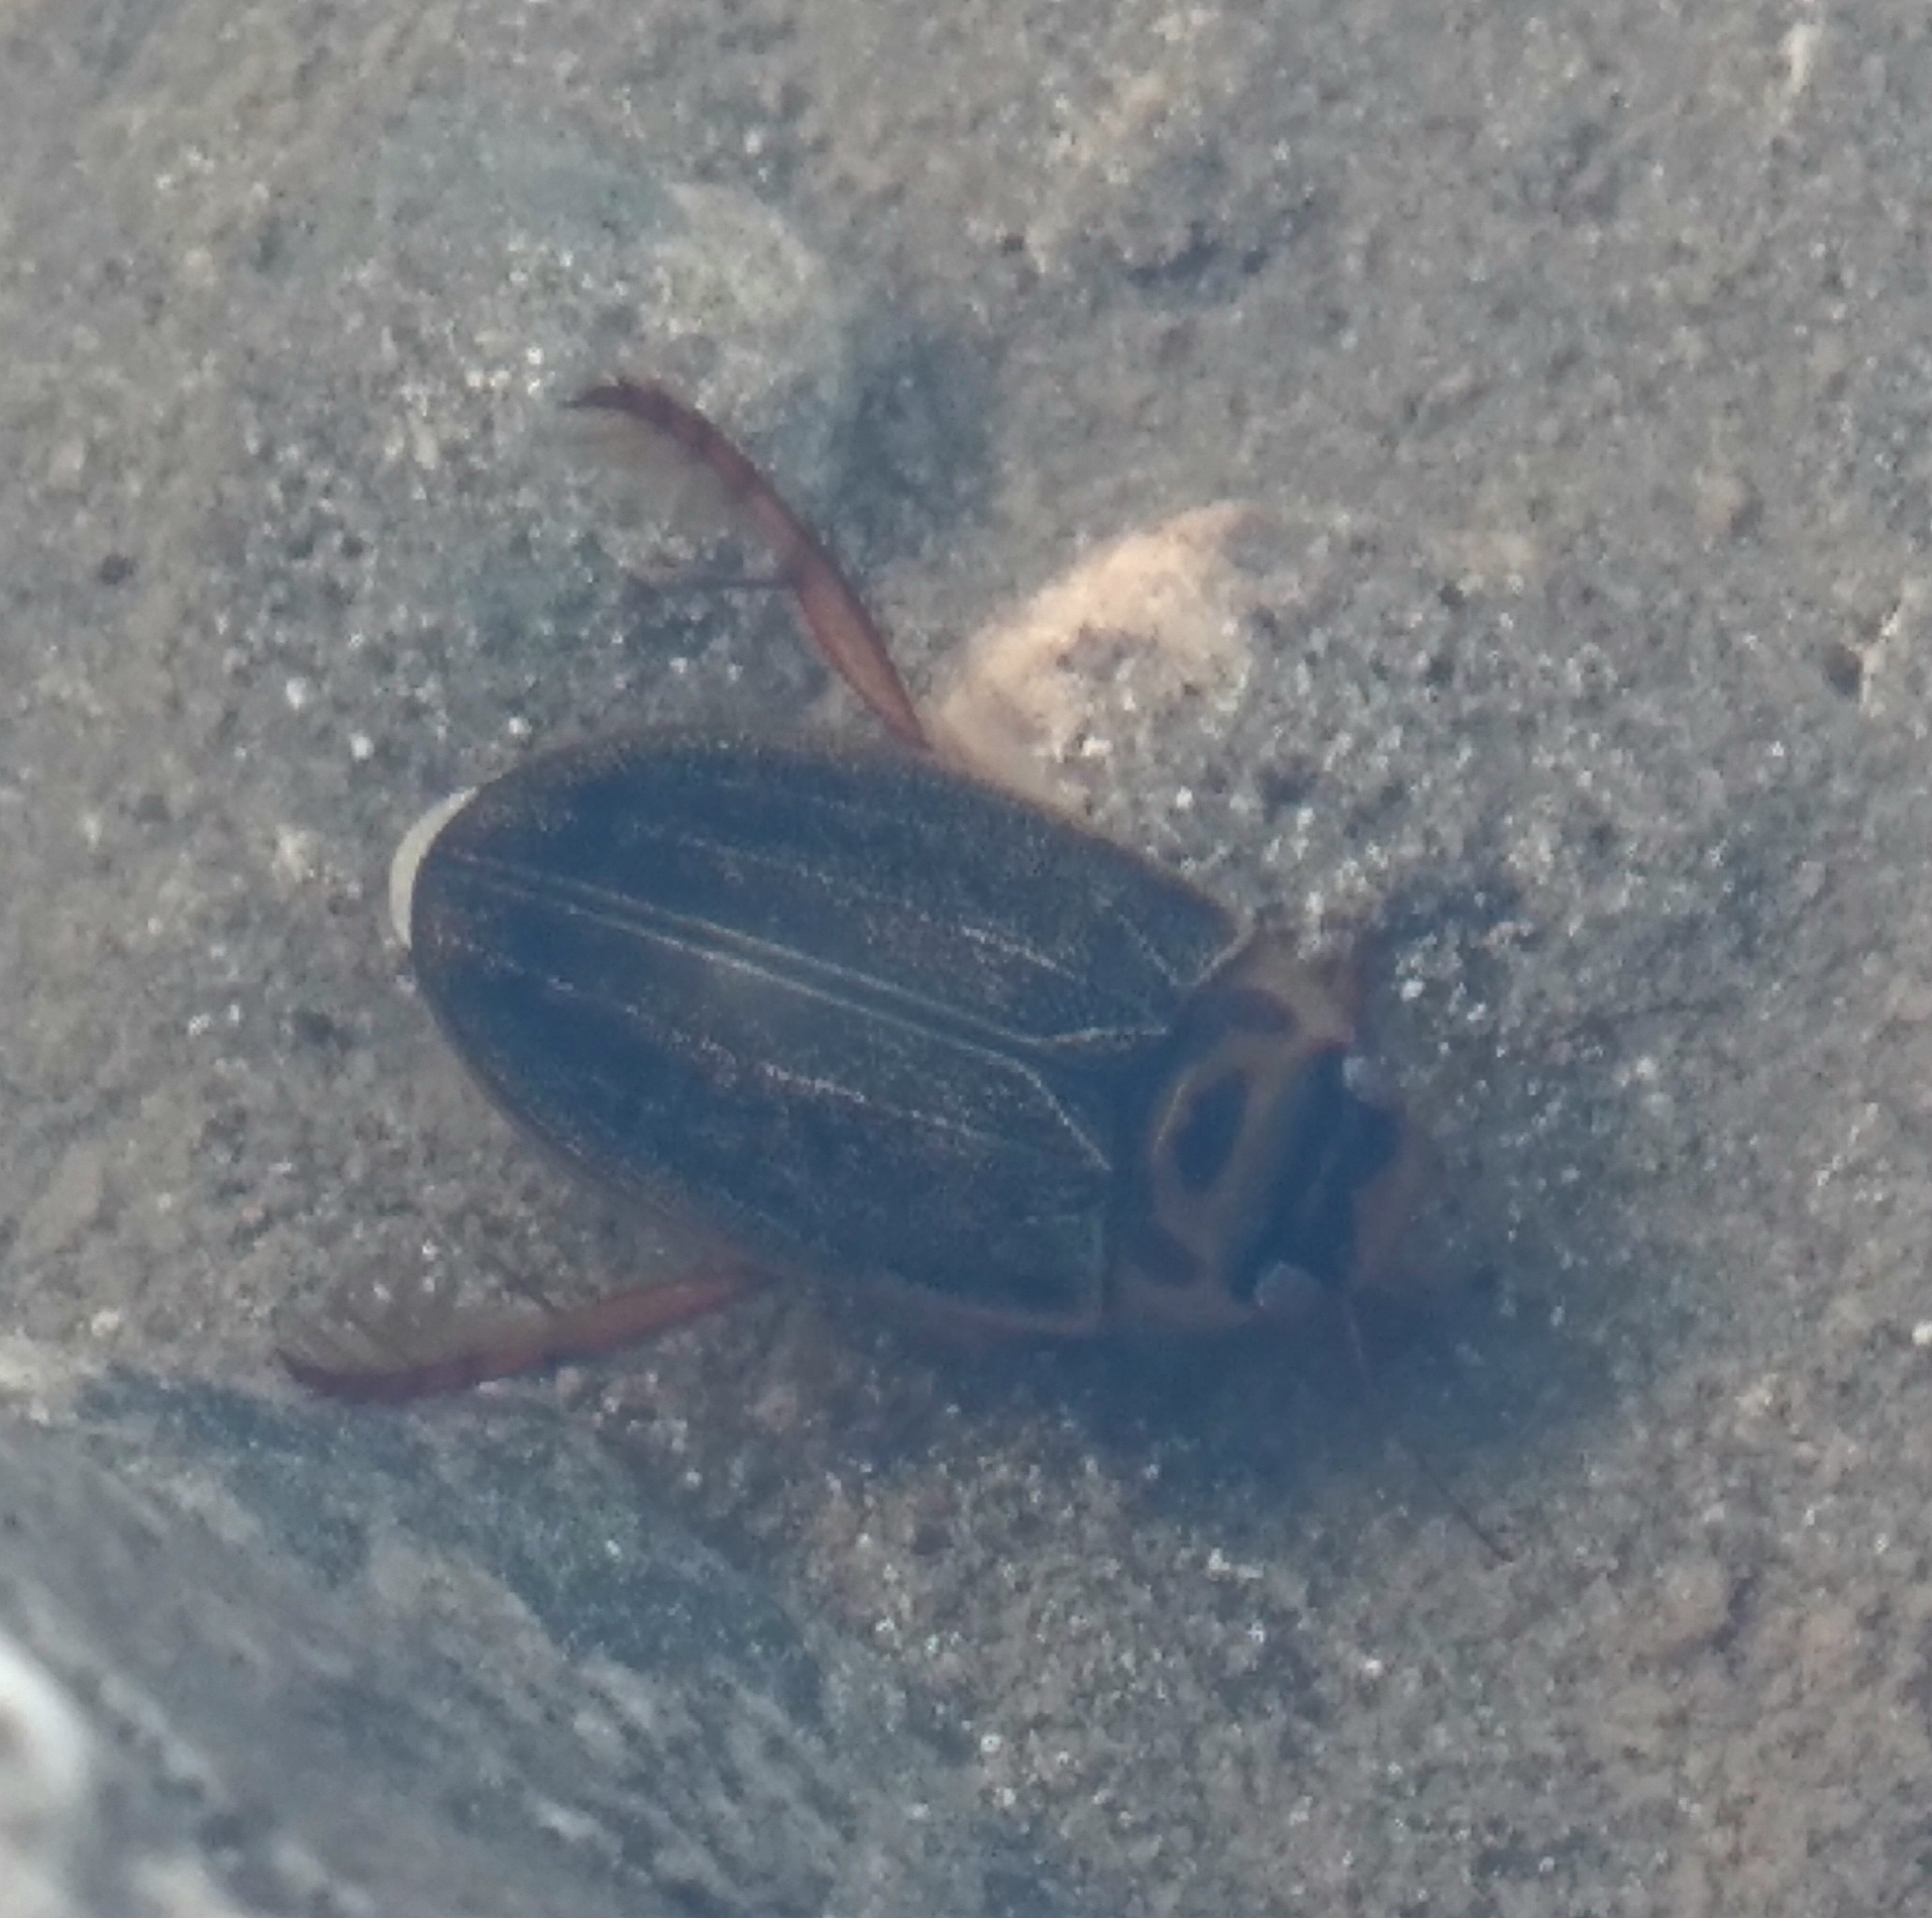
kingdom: Animalia
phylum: Arthropoda
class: Insecta
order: Coleoptera
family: Dytiscidae
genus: Rhantus
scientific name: Rhantus sericans
